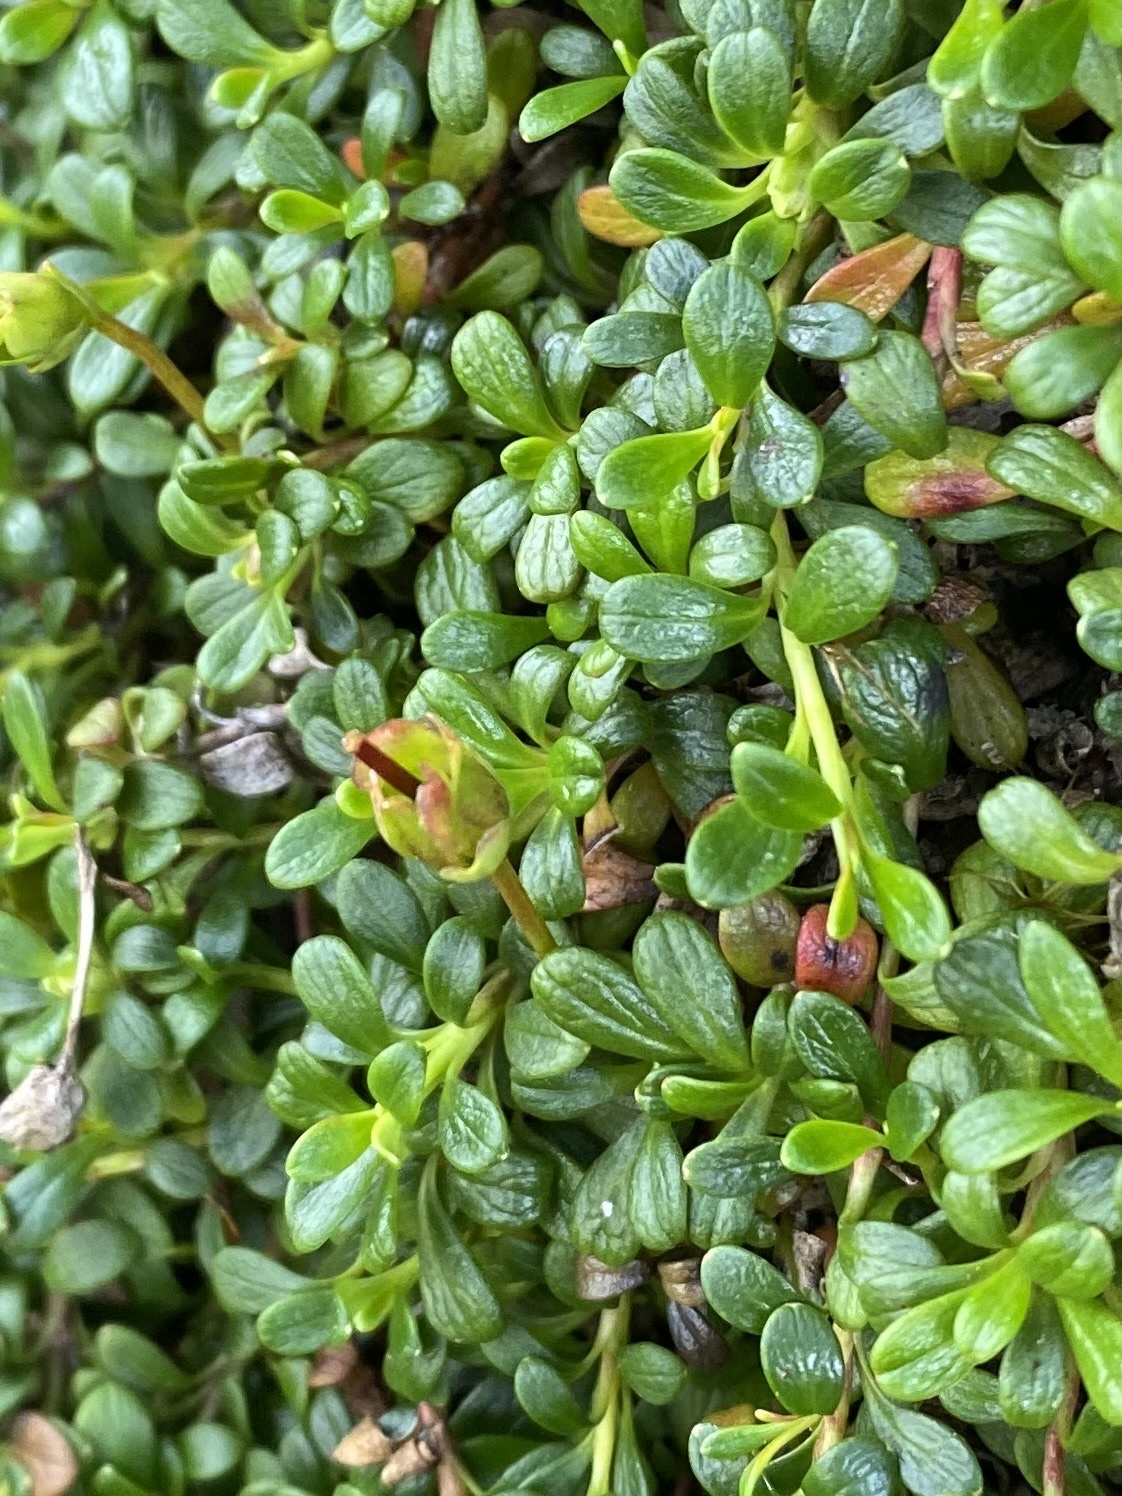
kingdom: Plantae
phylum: Tracheophyta
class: Magnoliopsida
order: Ericales
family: Diapensiaceae
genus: Diapensia
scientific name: Diapensia obovata
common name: Alaska diapensia
